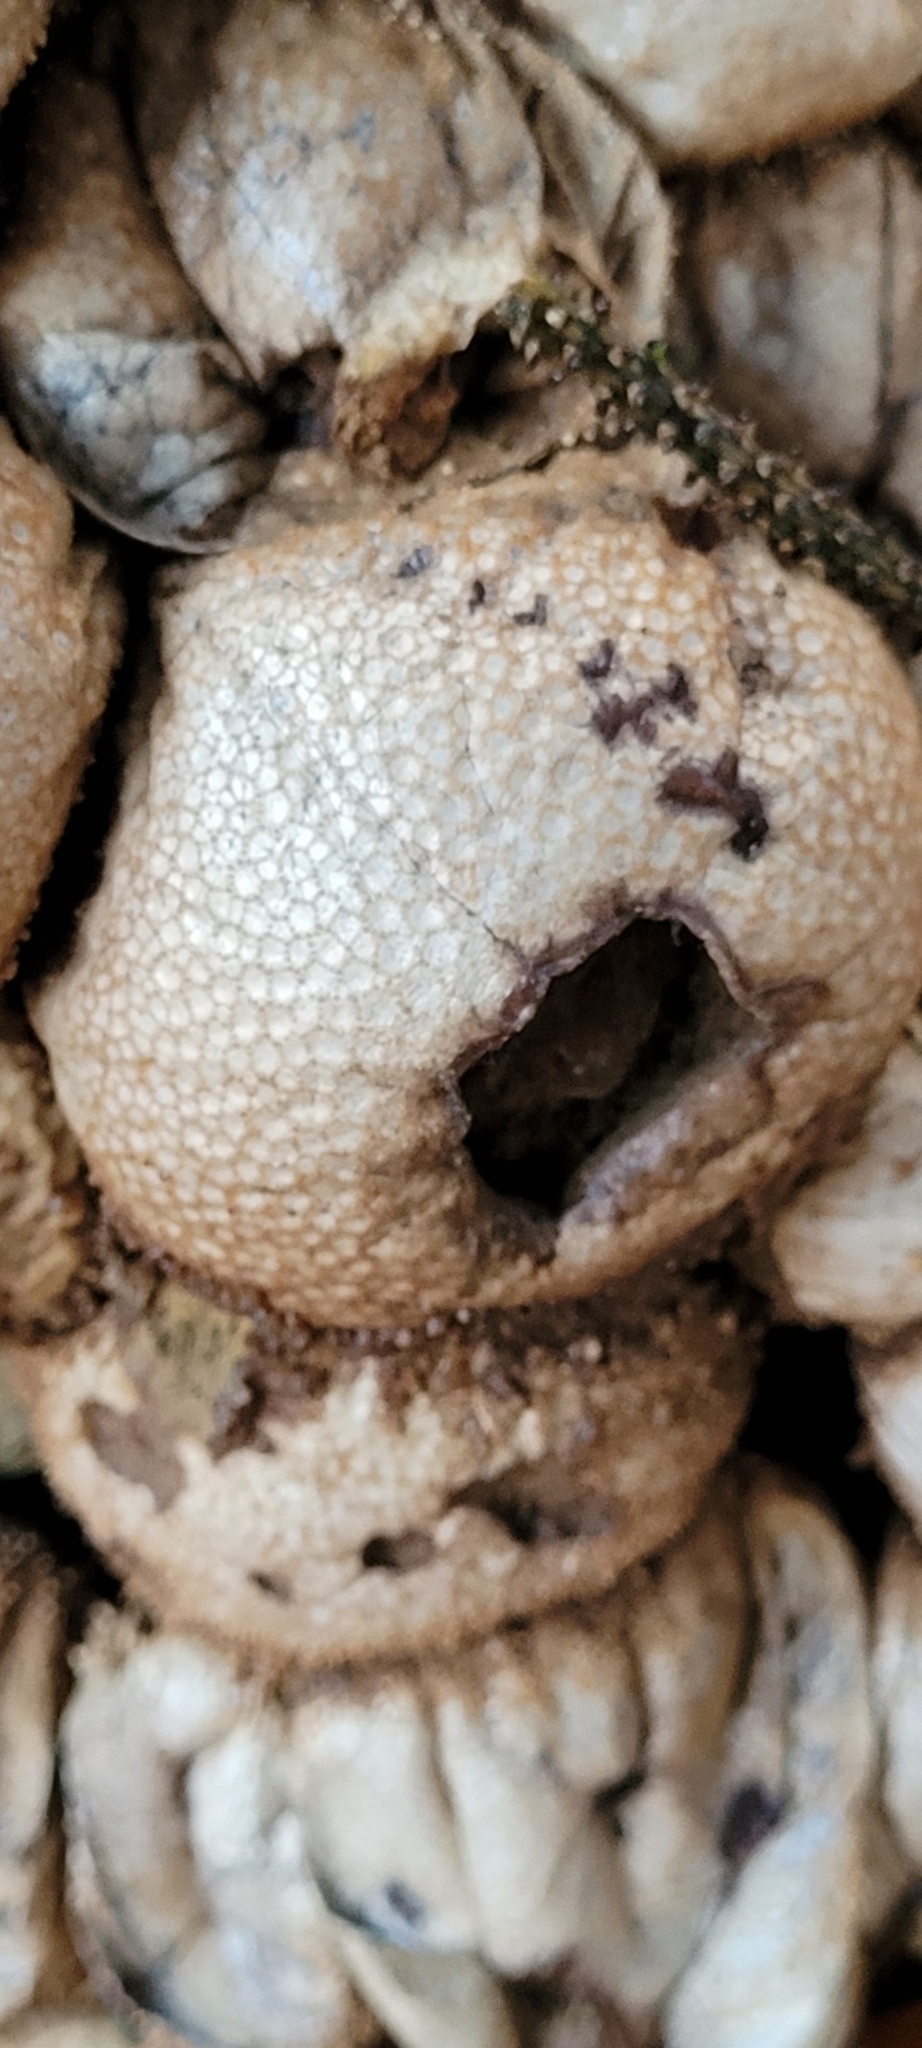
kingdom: Fungi
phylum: Basidiomycota
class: Agaricomycetes
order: Agaricales
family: Lycoperdaceae
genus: Lycoperdon
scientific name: Lycoperdon perlatum
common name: Common puffball
